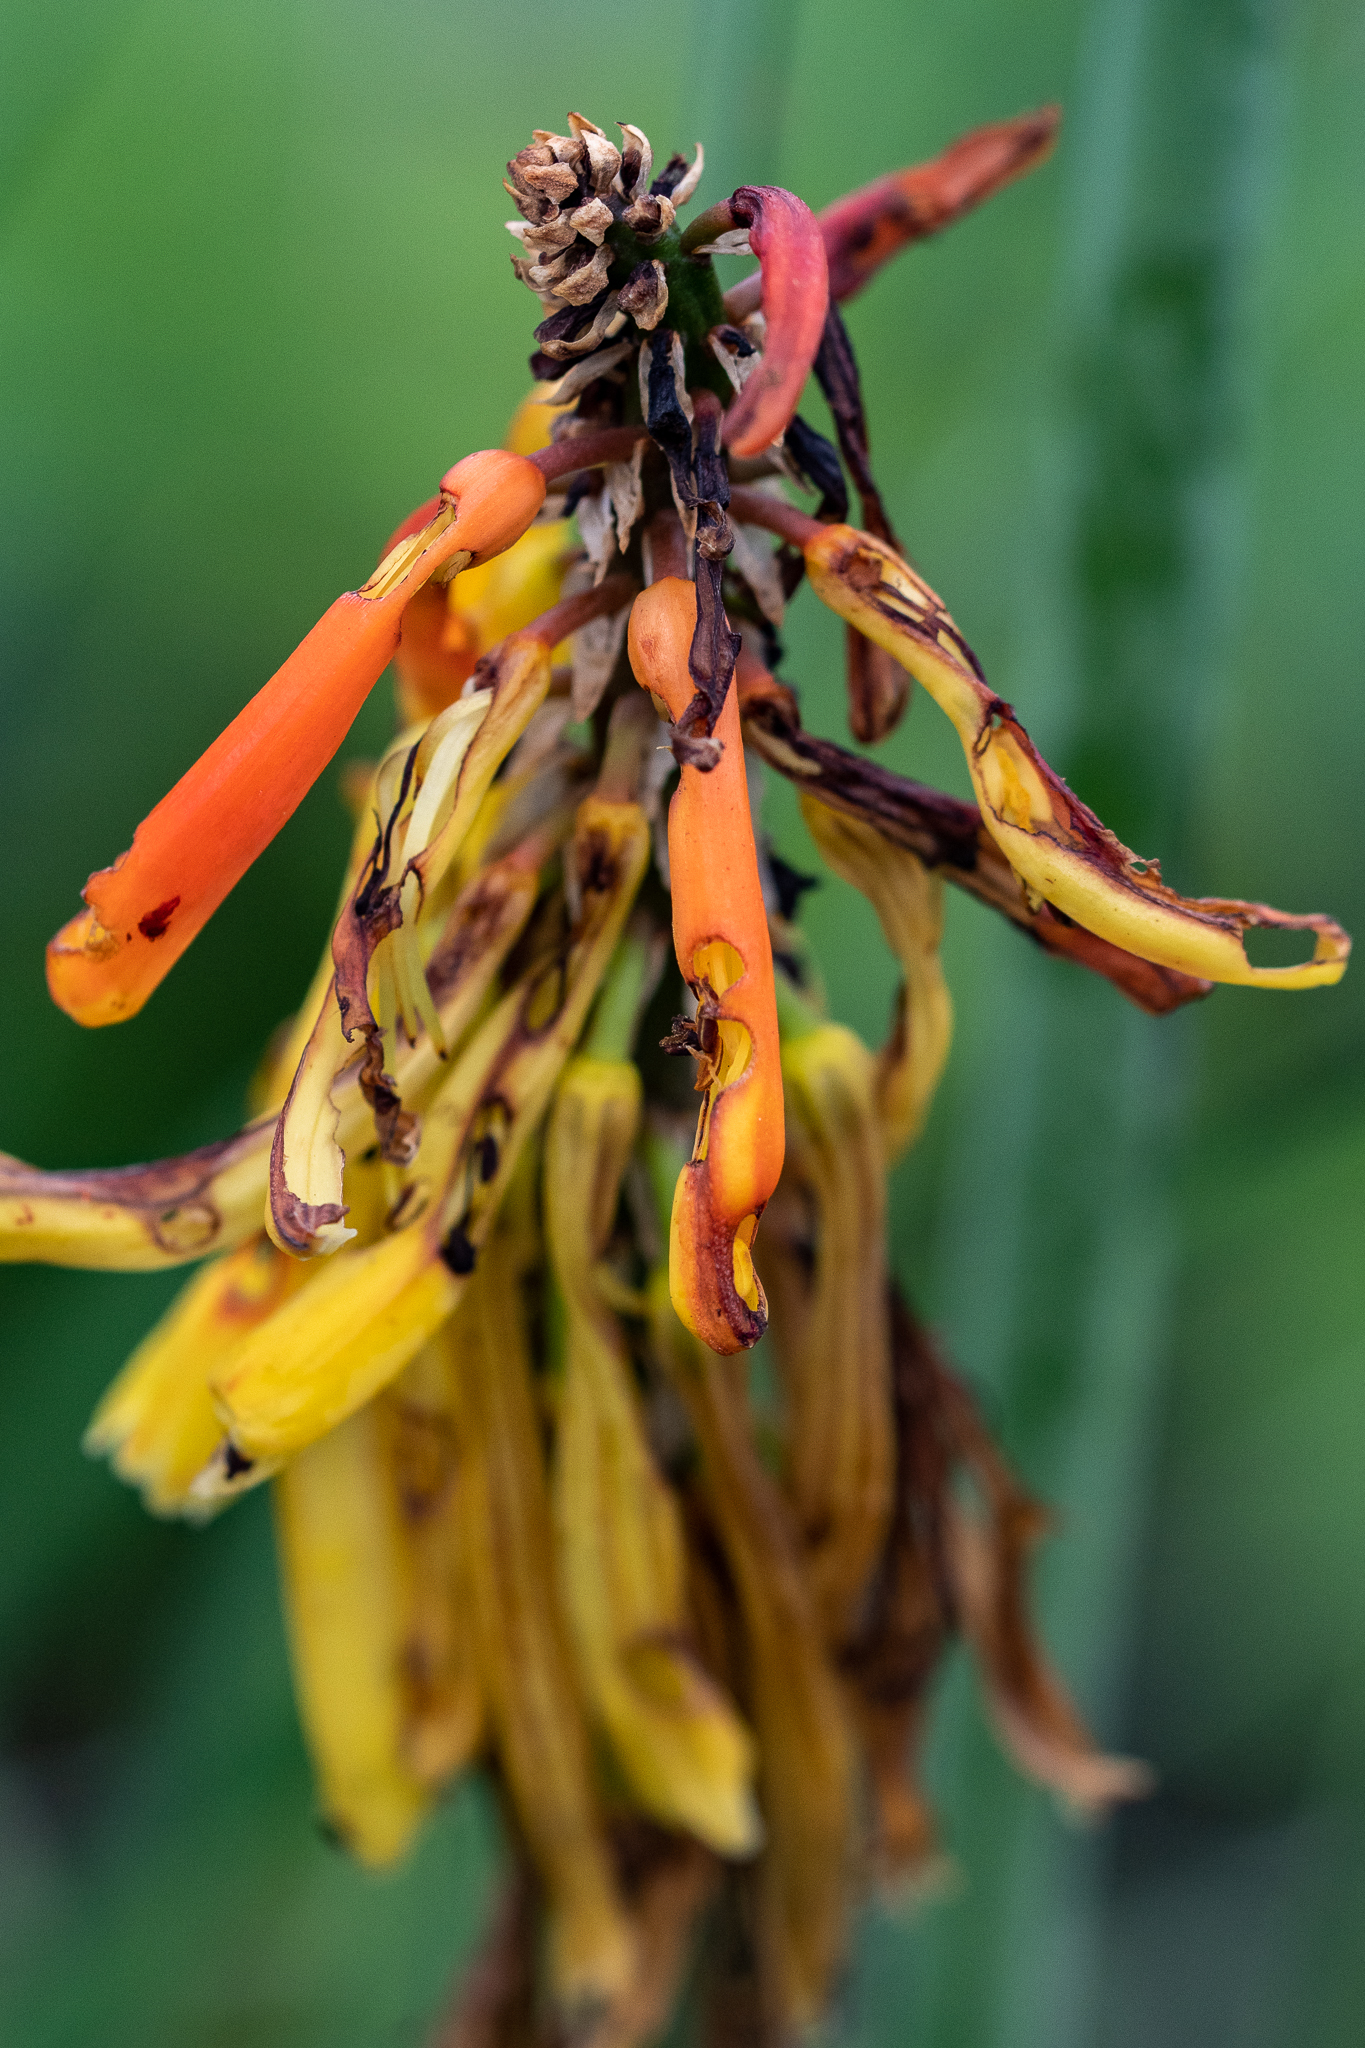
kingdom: Plantae
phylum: Tracheophyta
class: Liliopsida
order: Asparagales
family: Asphodelaceae
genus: Kniphofia
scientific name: Kniphofia uvaria
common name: Red-hot-poker
